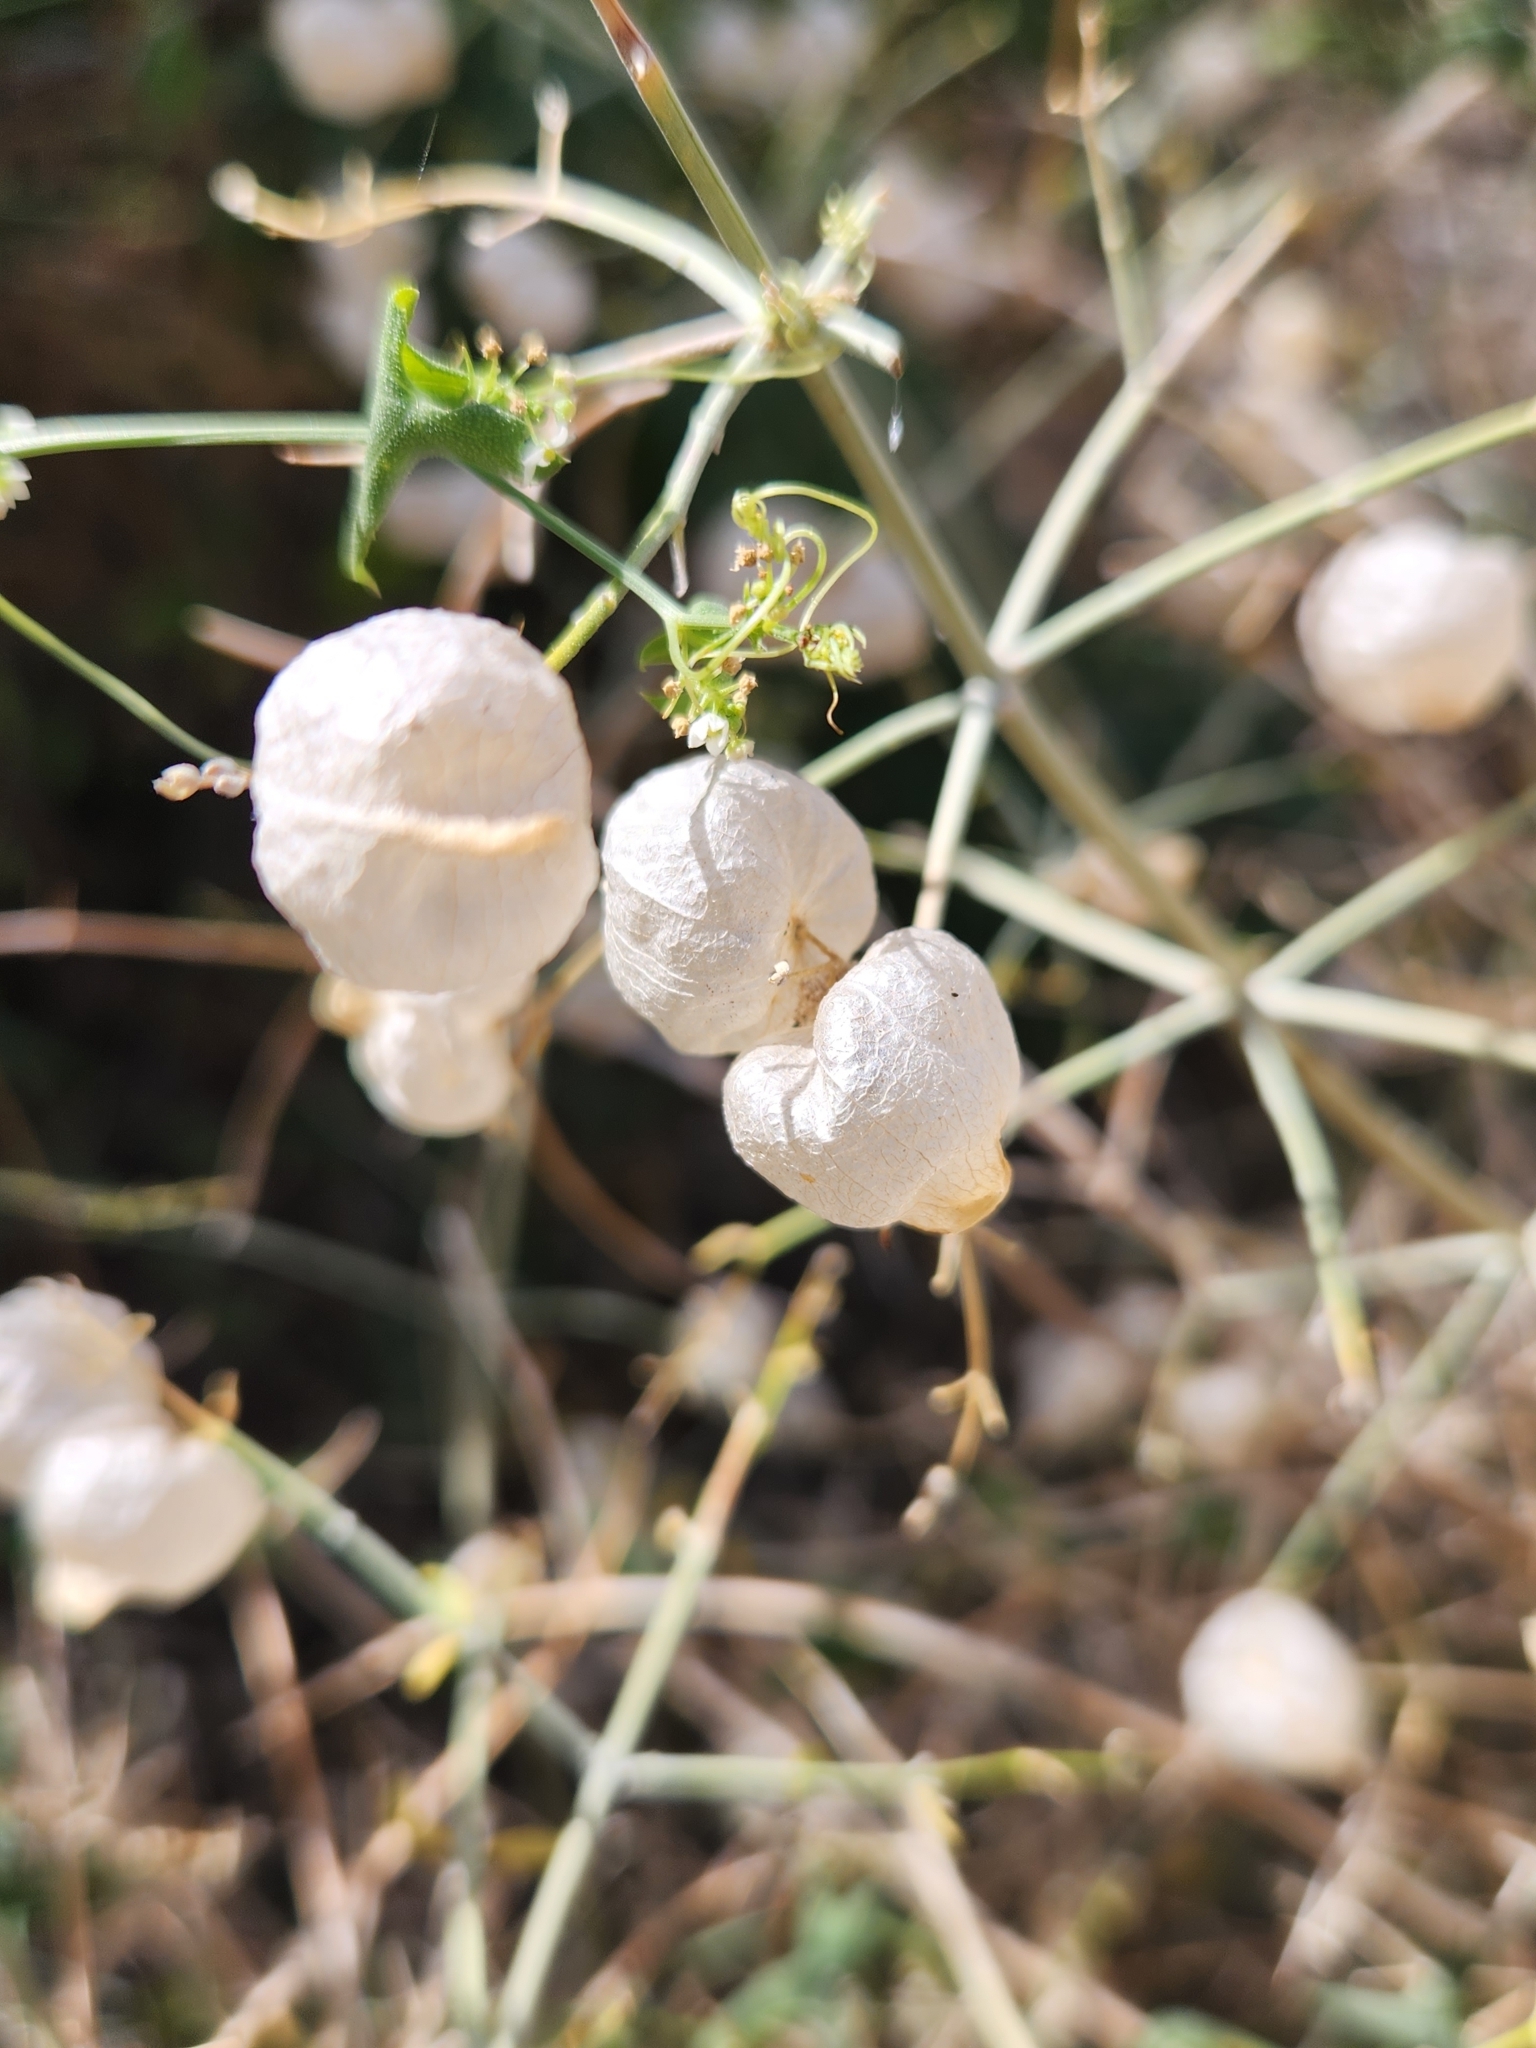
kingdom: Plantae
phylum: Tracheophyta
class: Magnoliopsida
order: Lamiales
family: Lamiaceae
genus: Scutellaria
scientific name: Scutellaria mexicana
